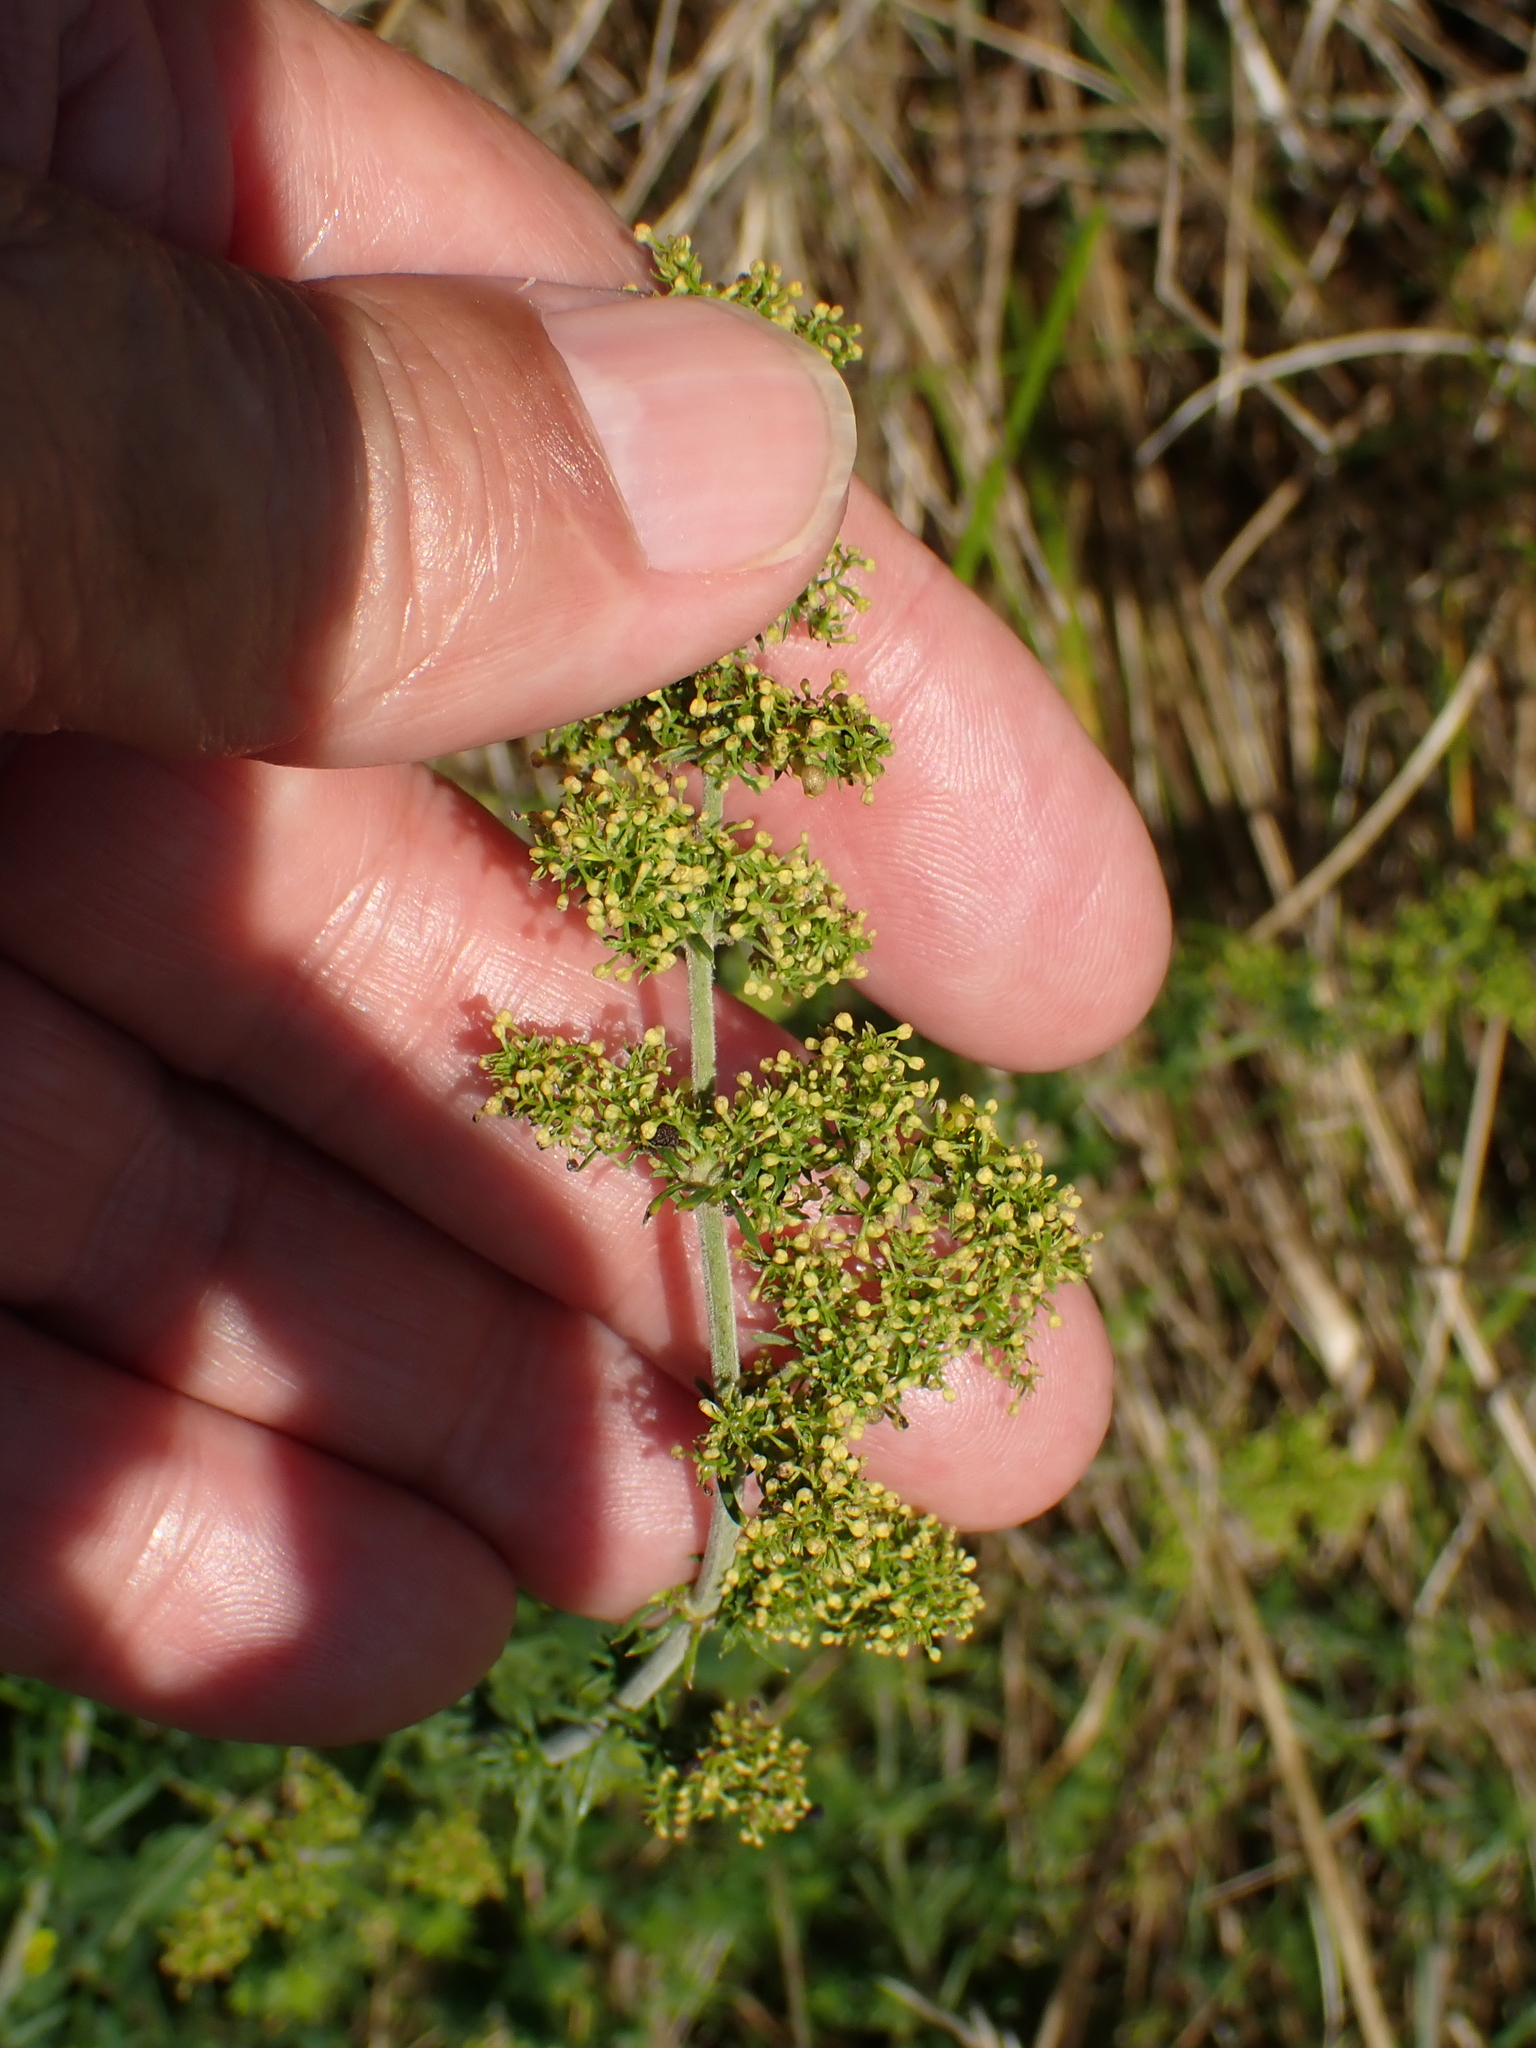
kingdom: Plantae
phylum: Tracheophyta
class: Magnoliopsida
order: Gentianales
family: Rubiaceae
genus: Galium
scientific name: Galium verum
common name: Lady's bedstraw
